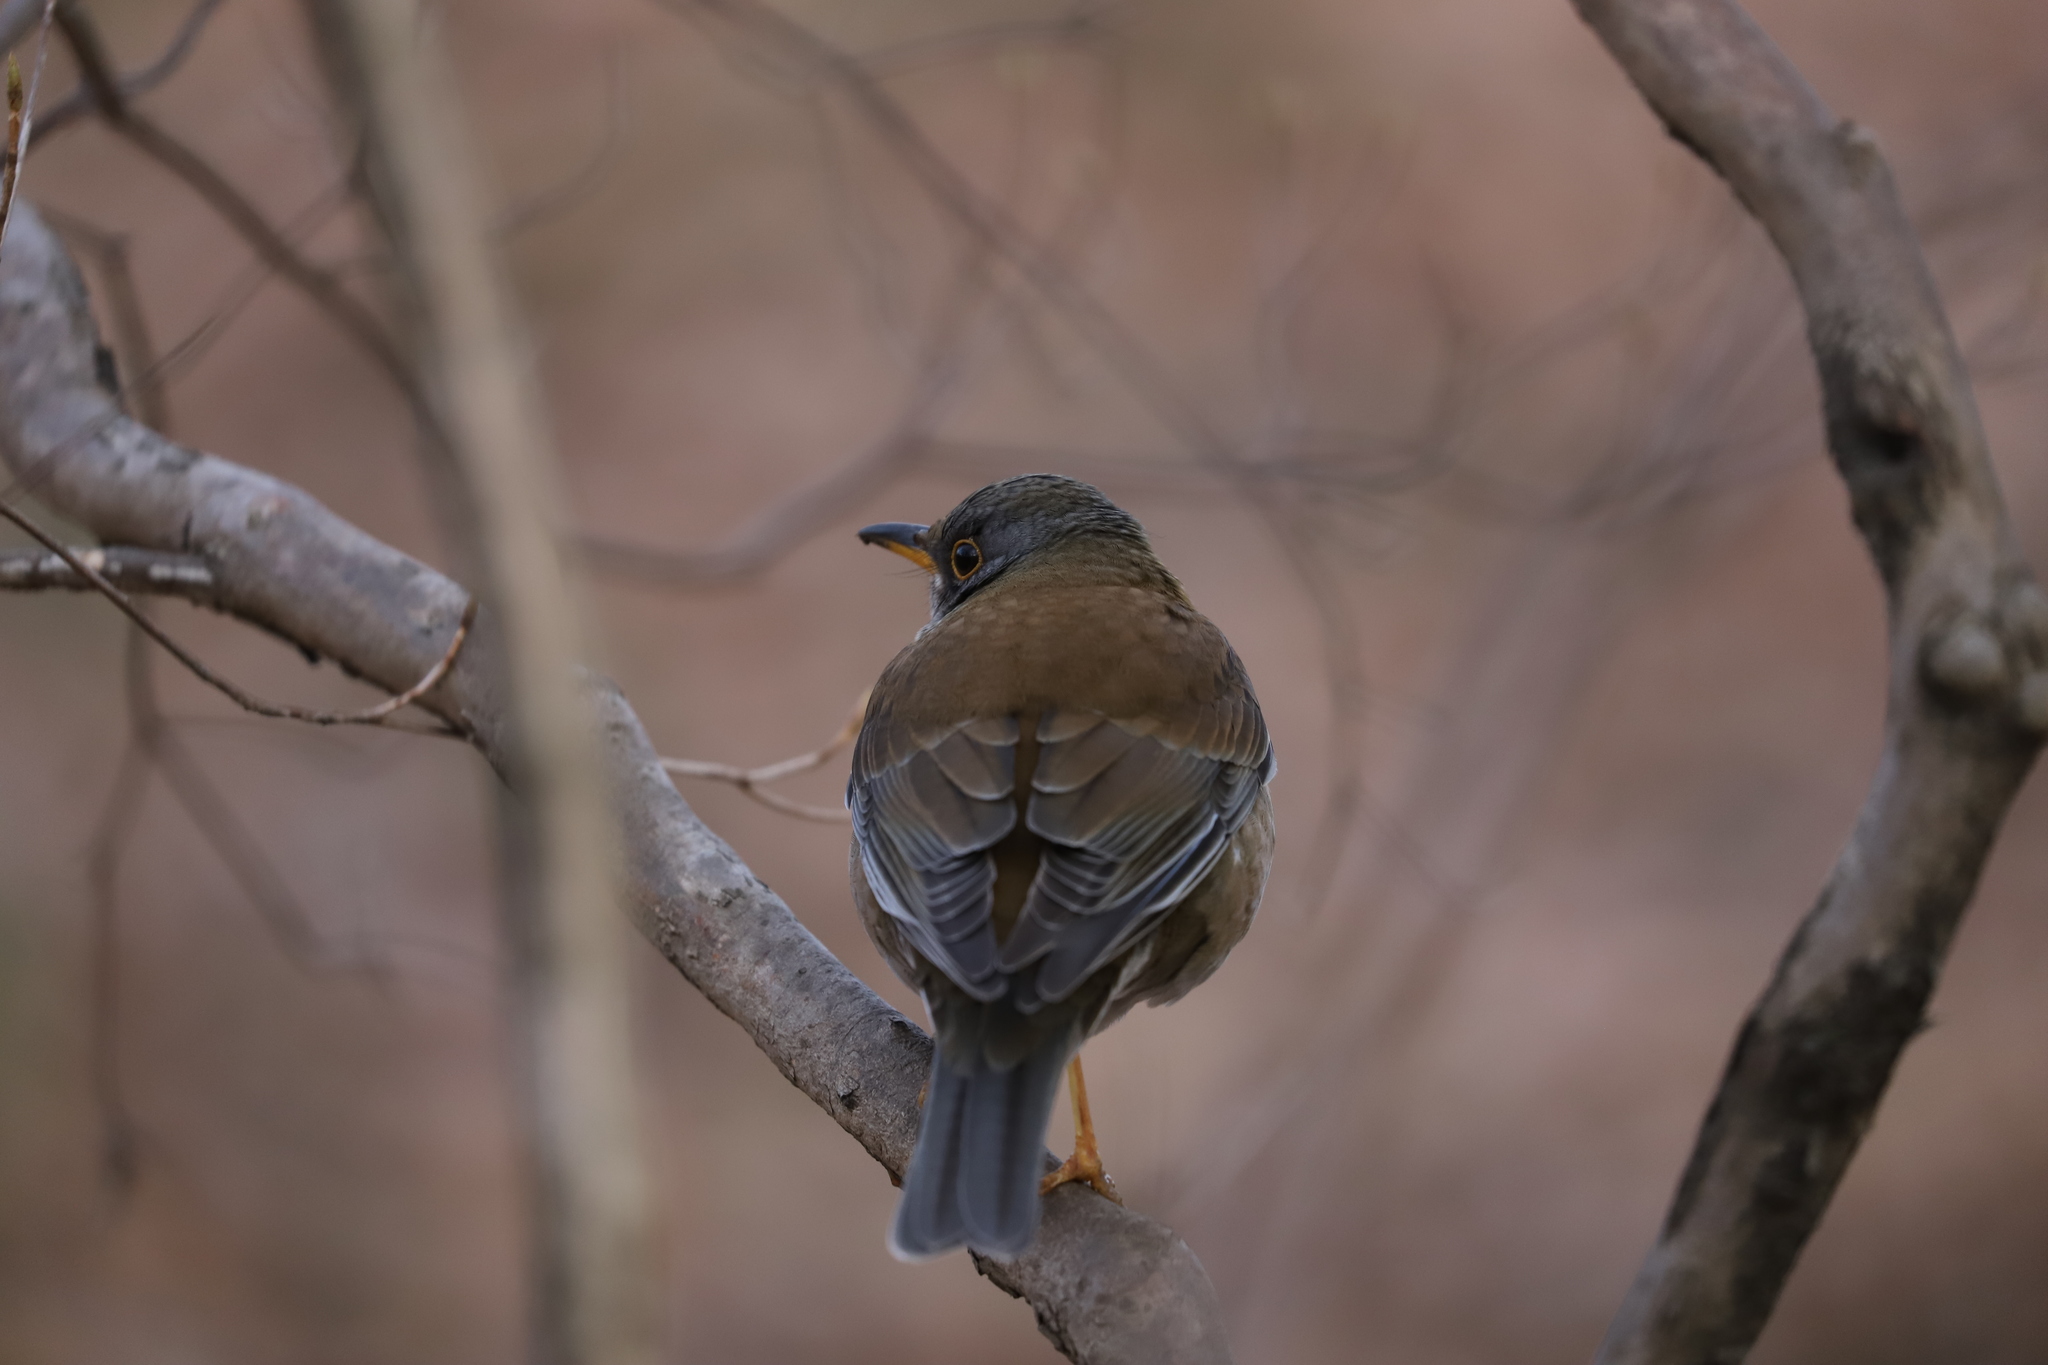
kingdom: Animalia
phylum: Chordata
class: Aves
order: Passeriformes
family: Turdidae
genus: Turdus
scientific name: Turdus pallidus
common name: Pale thrush
